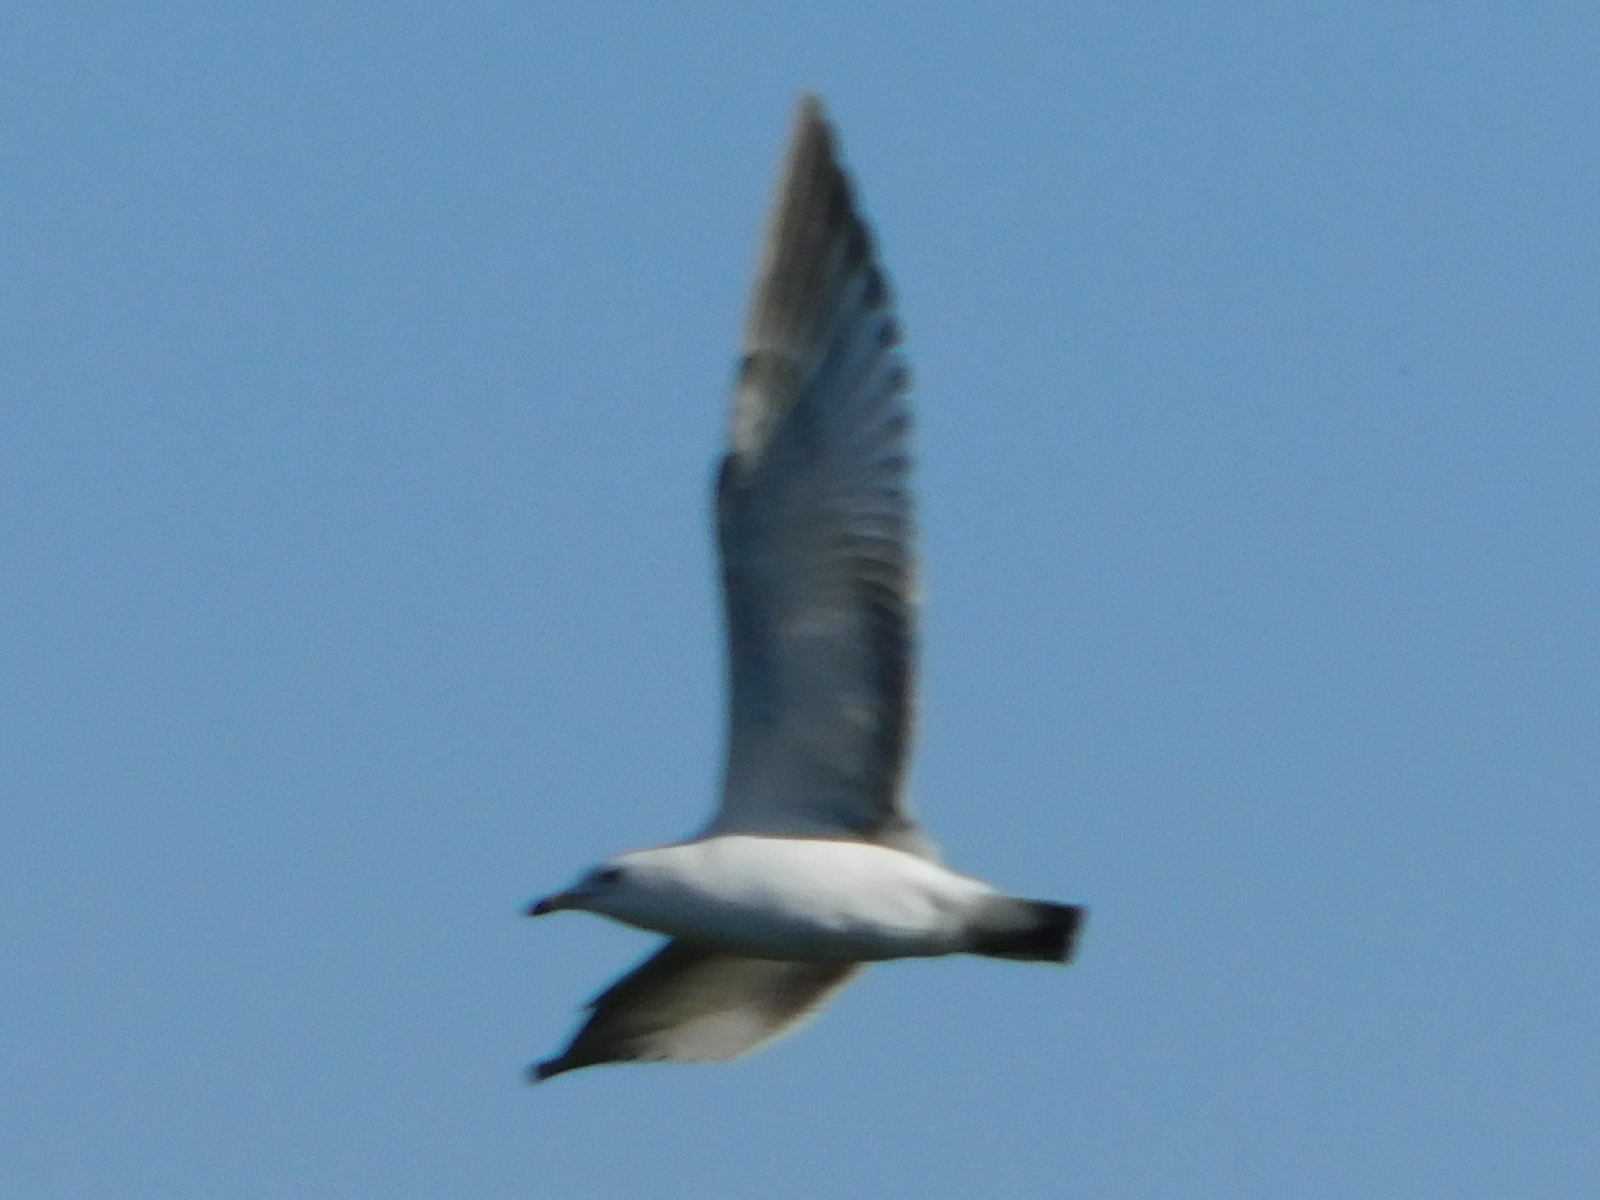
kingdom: Animalia
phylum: Chordata
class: Aves
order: Charadriiformes
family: Laridae
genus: Larus
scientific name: Larus delawarensis
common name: Ring-billed gull
